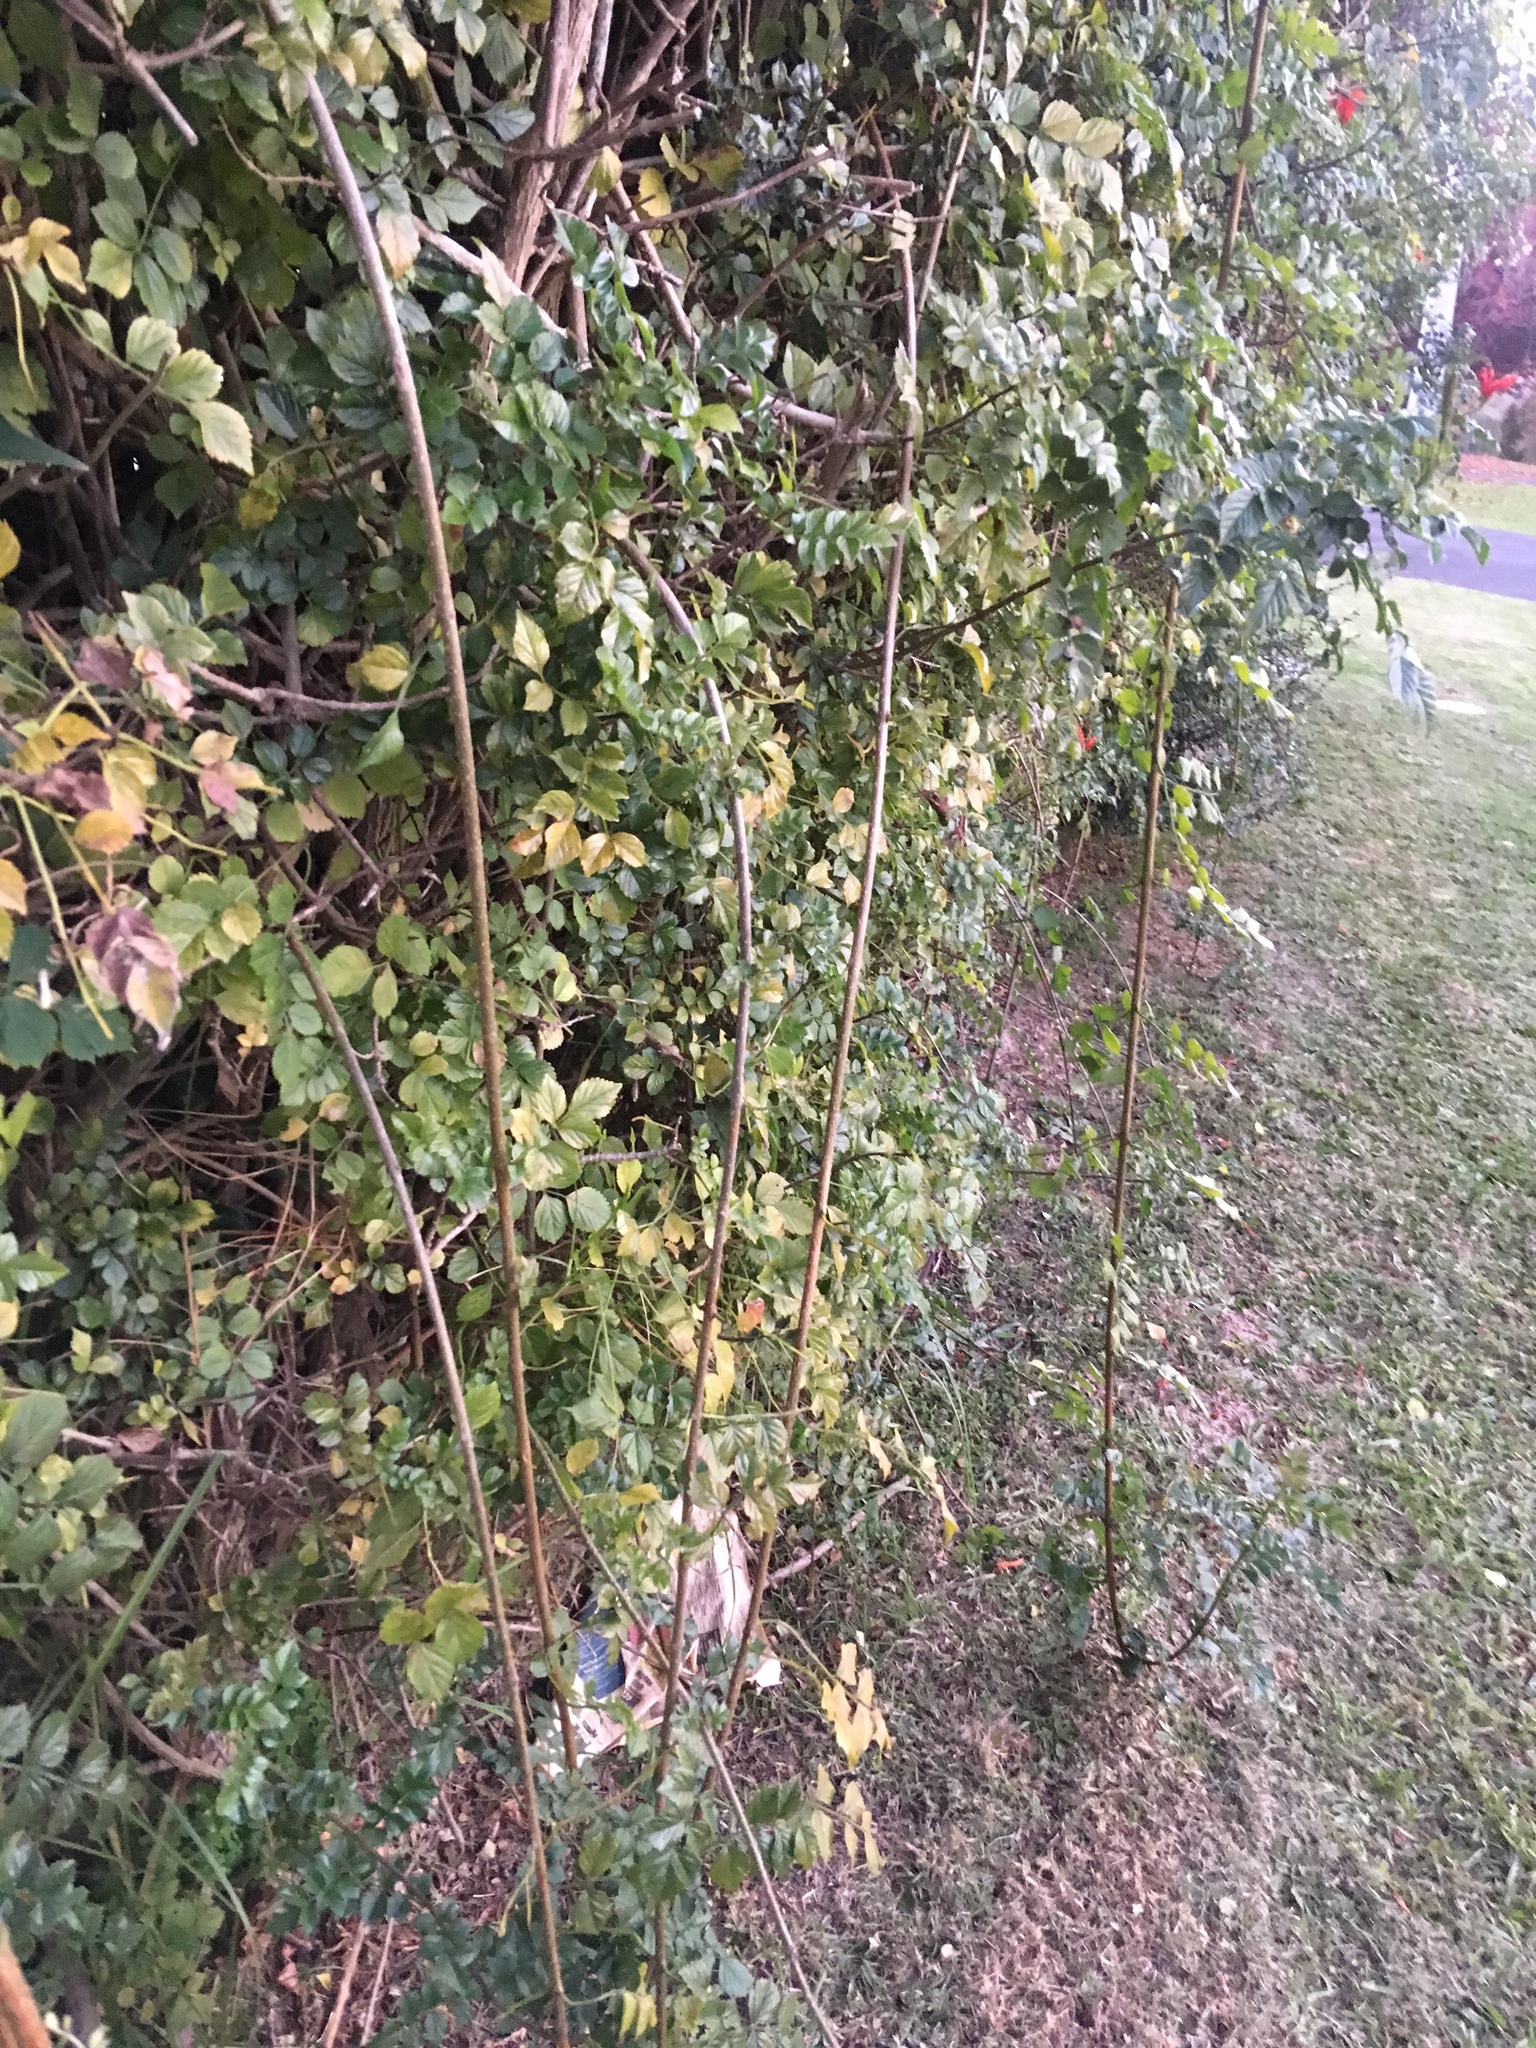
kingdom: Plantae
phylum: Tracheophyta
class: Magnoliopsida
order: Lamiales
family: Bignoniaceae
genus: Tecomaria
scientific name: Tecomaria capensis
